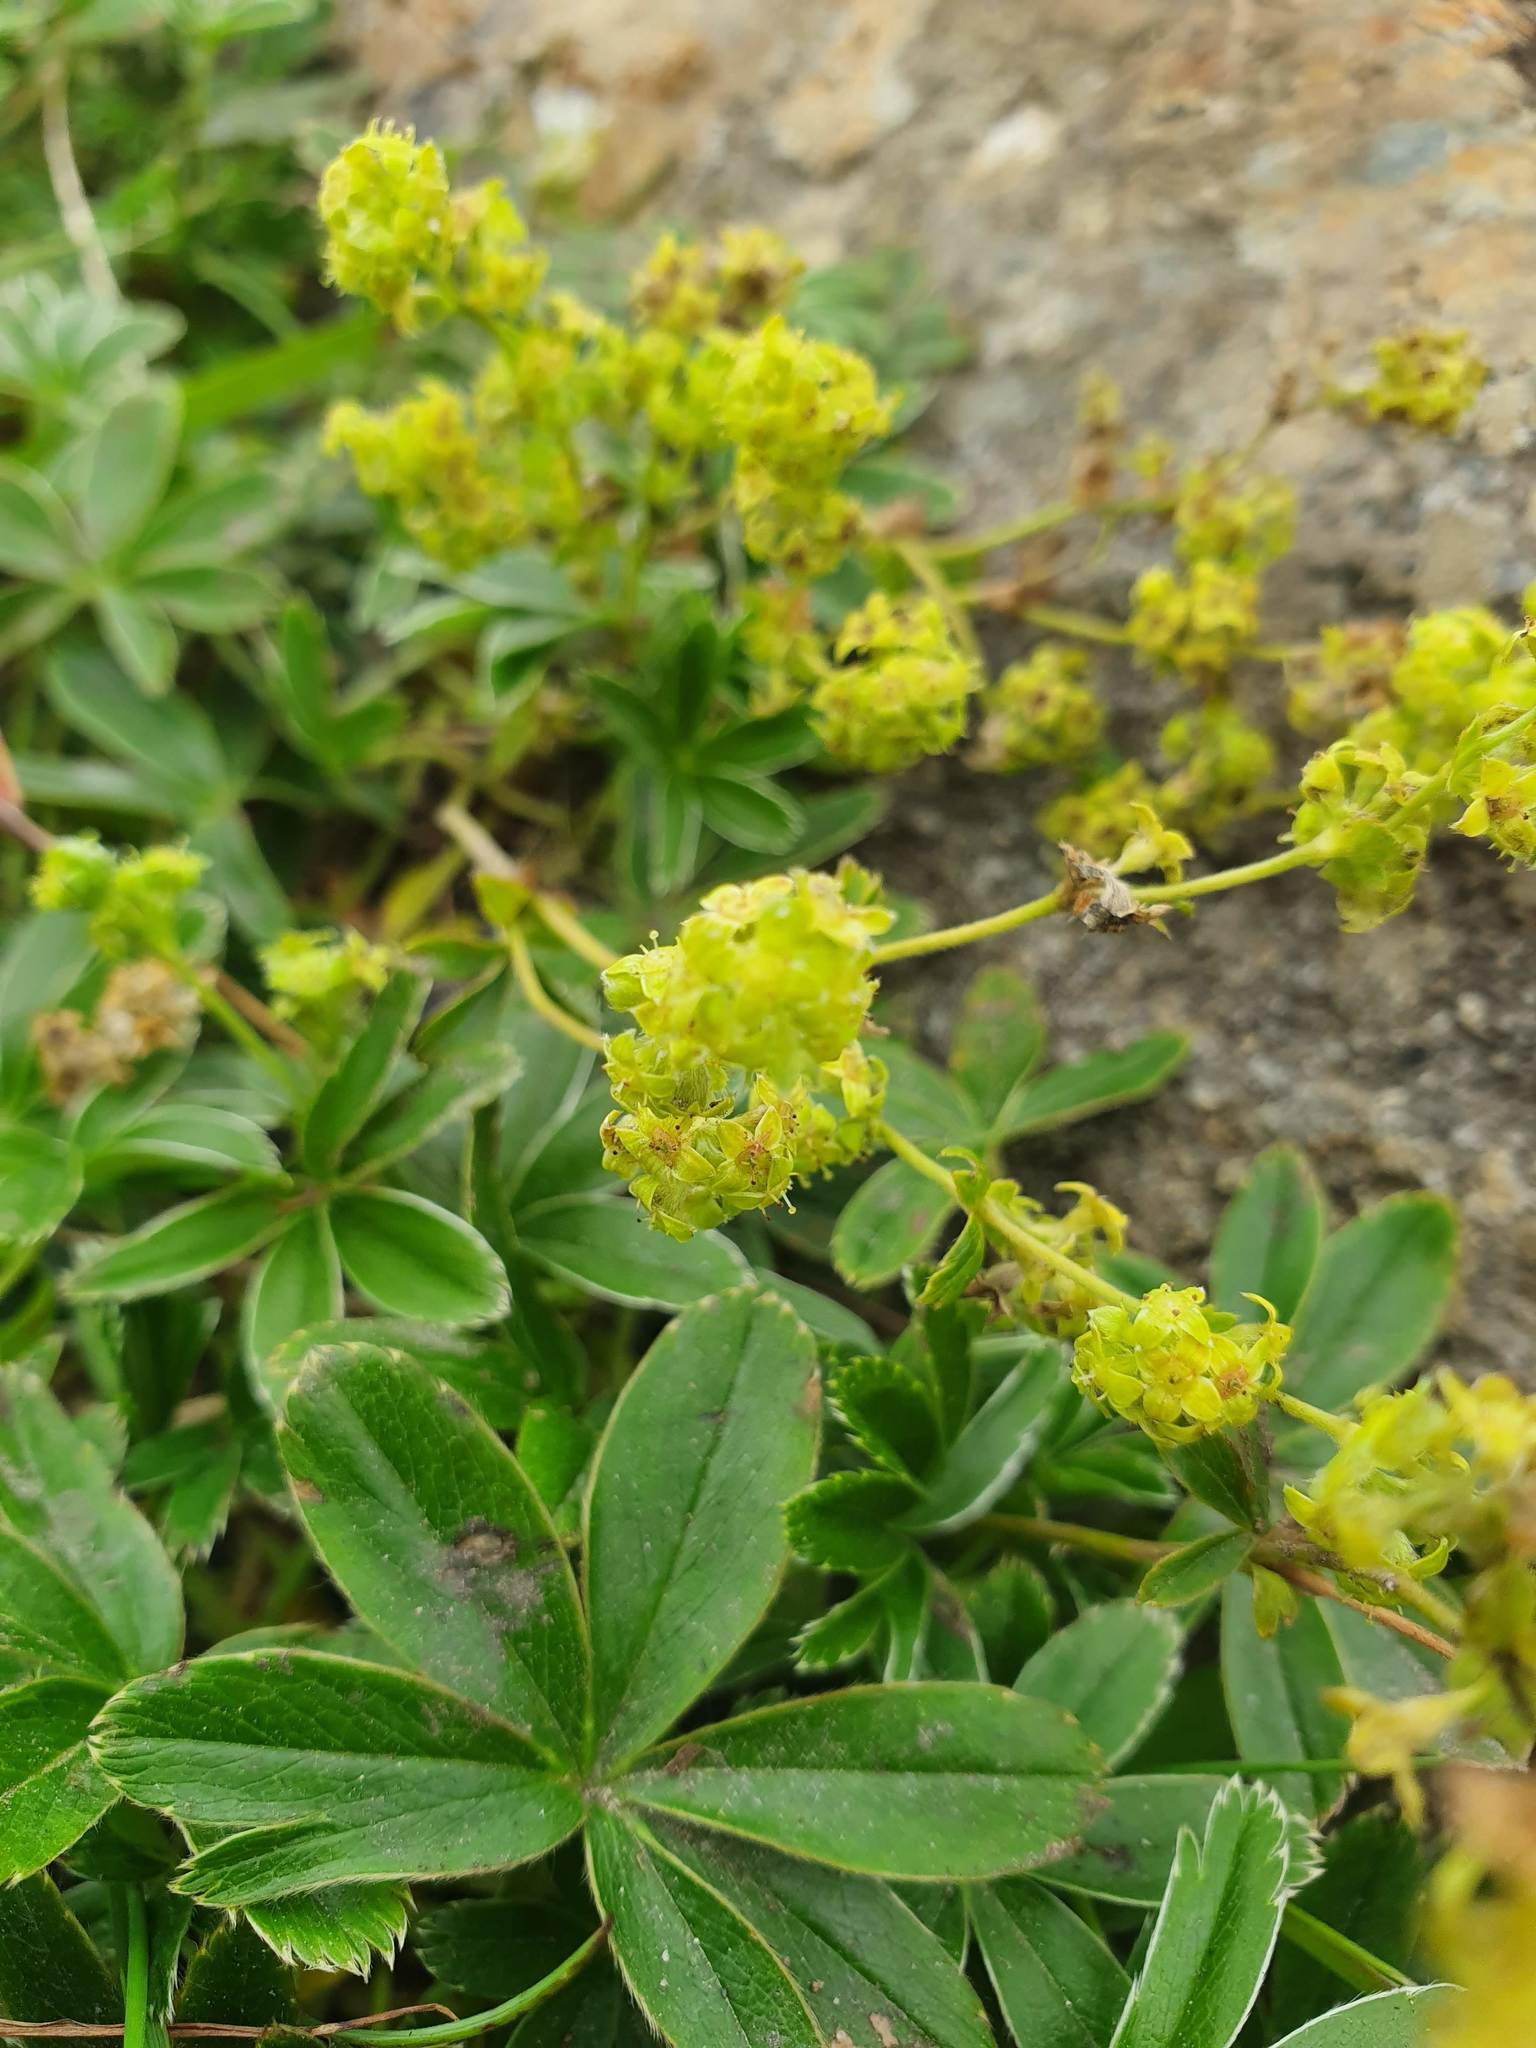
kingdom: Plantae
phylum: Tracheophyta
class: Magnoliopsida
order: Rosales
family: Rosaceae
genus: Alchemilla
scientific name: Alchemilla alpina
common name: Alpine lady's-mantle
